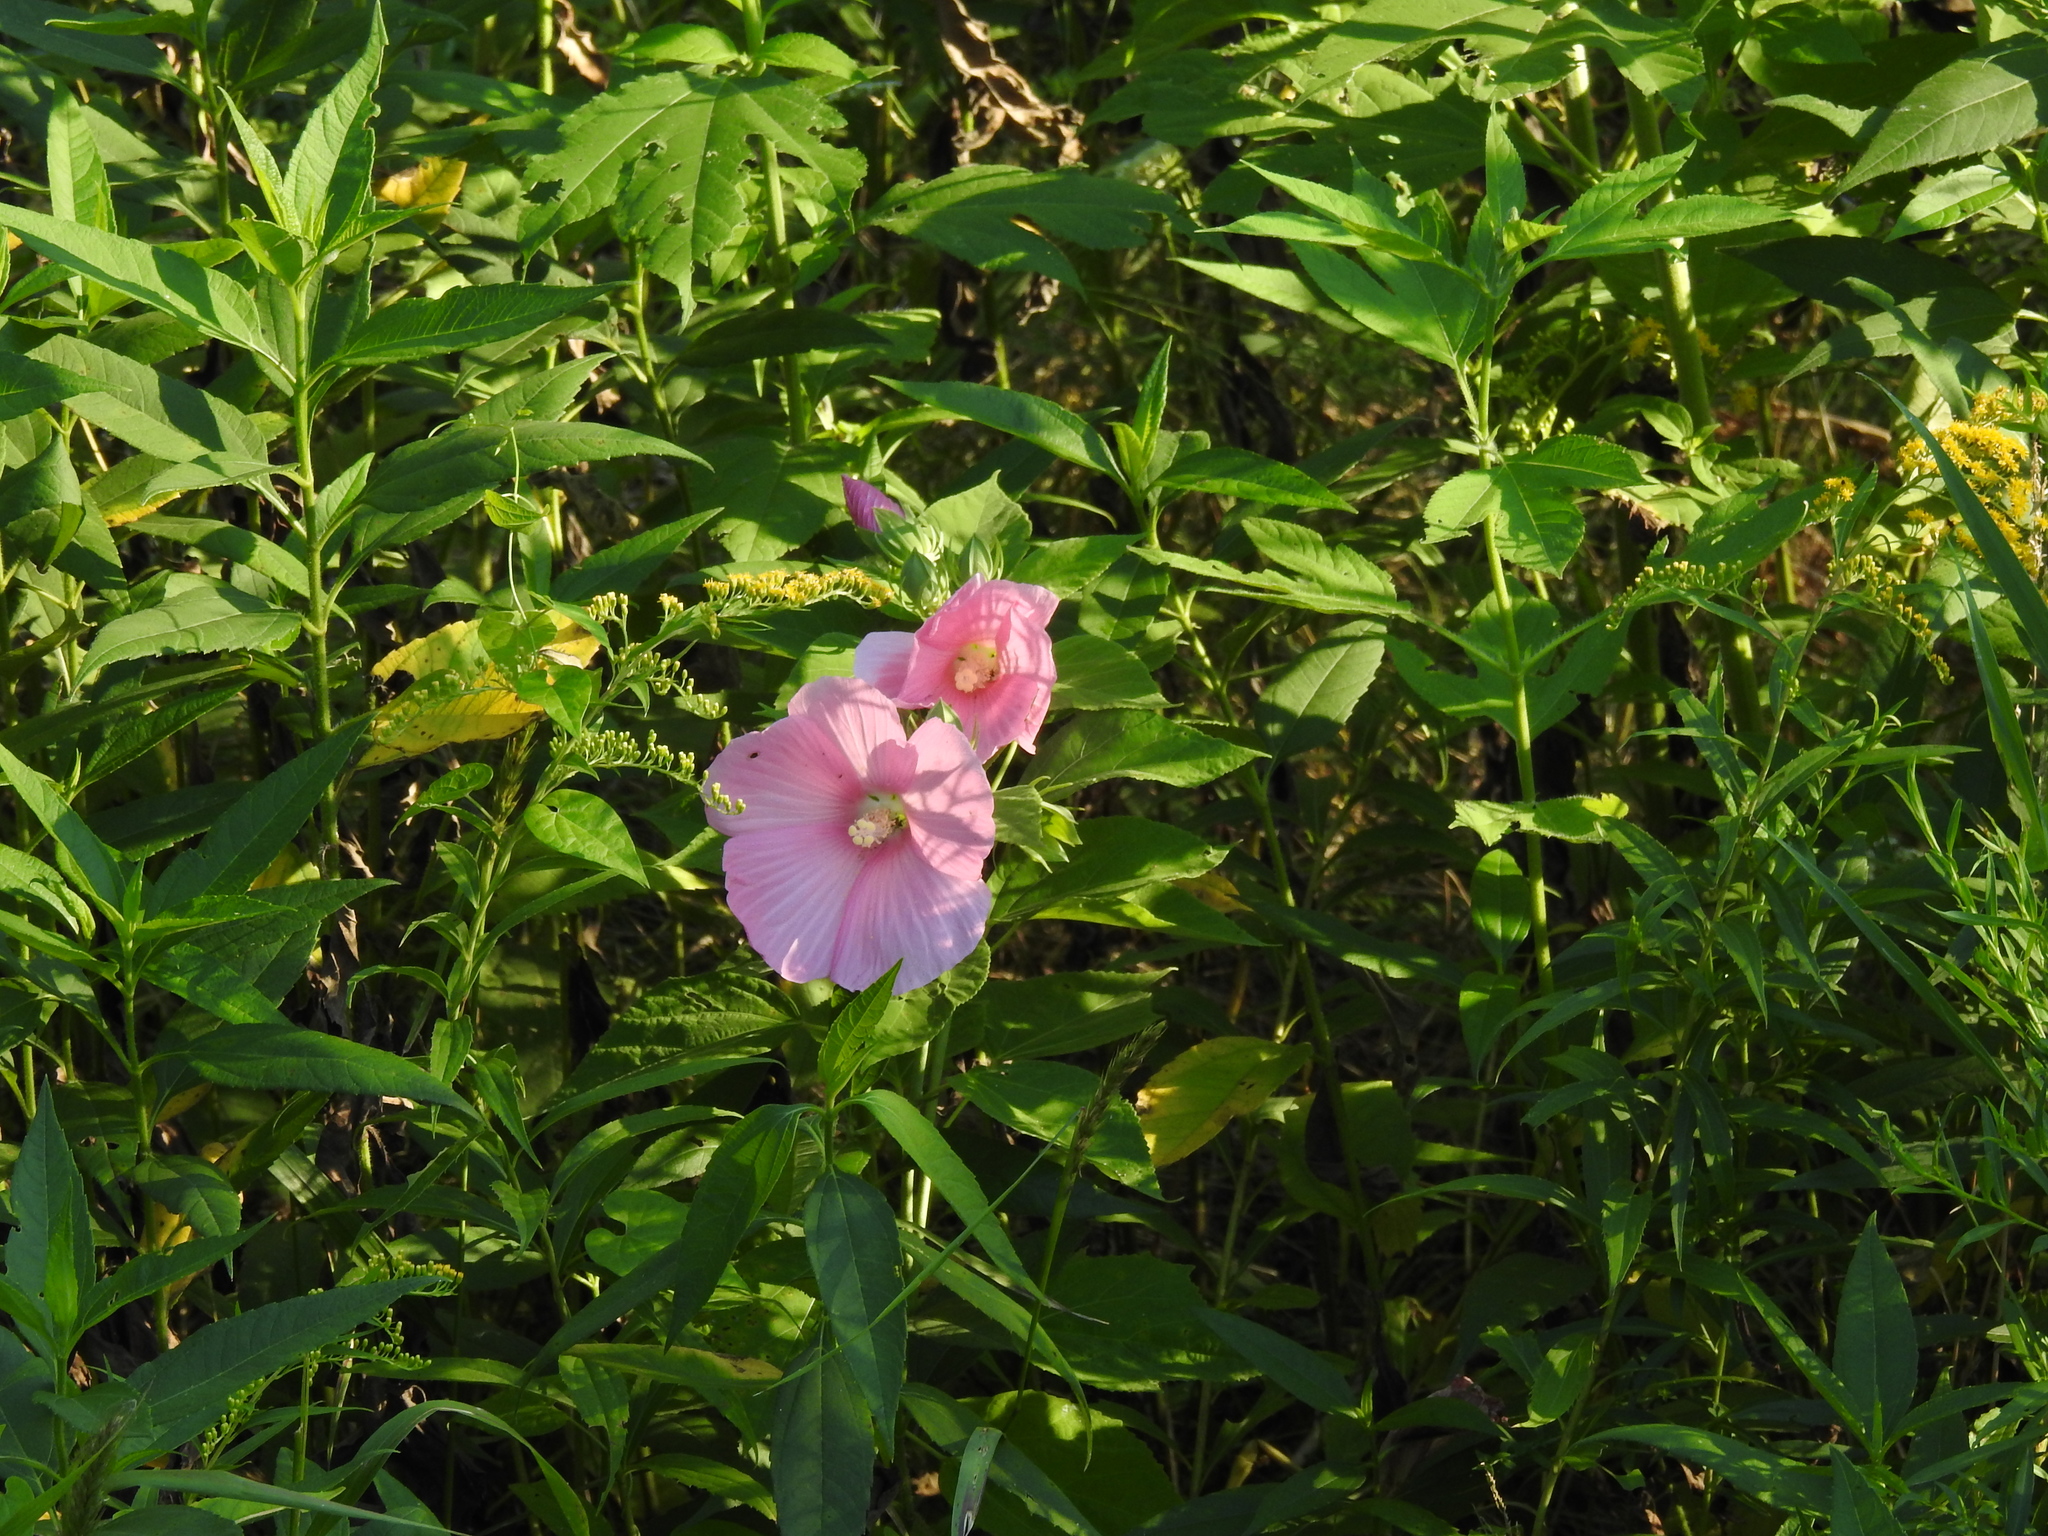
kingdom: Plantae
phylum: Tracheophyta
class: Magnoliopsida
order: Malvales
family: Malvaceae
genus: Hibiscus
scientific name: Hibiscus moscheutos
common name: Common rose-mallow
